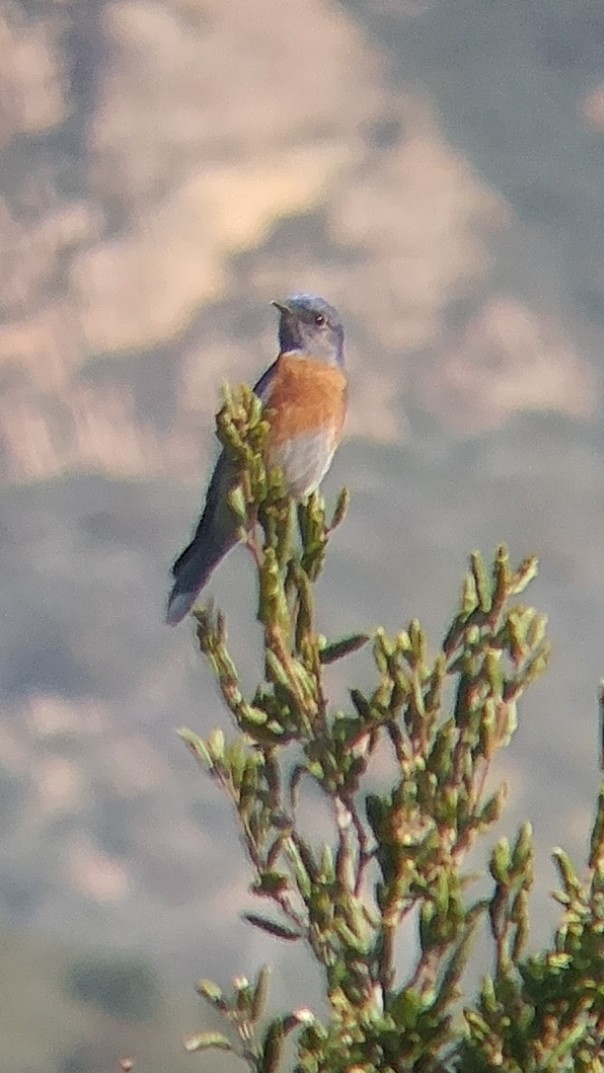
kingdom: Animalia
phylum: Chordata
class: Aves
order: Passeriformes
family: Turdidae
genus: Sialia
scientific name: Sialia mexicana
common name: Western bluebird
